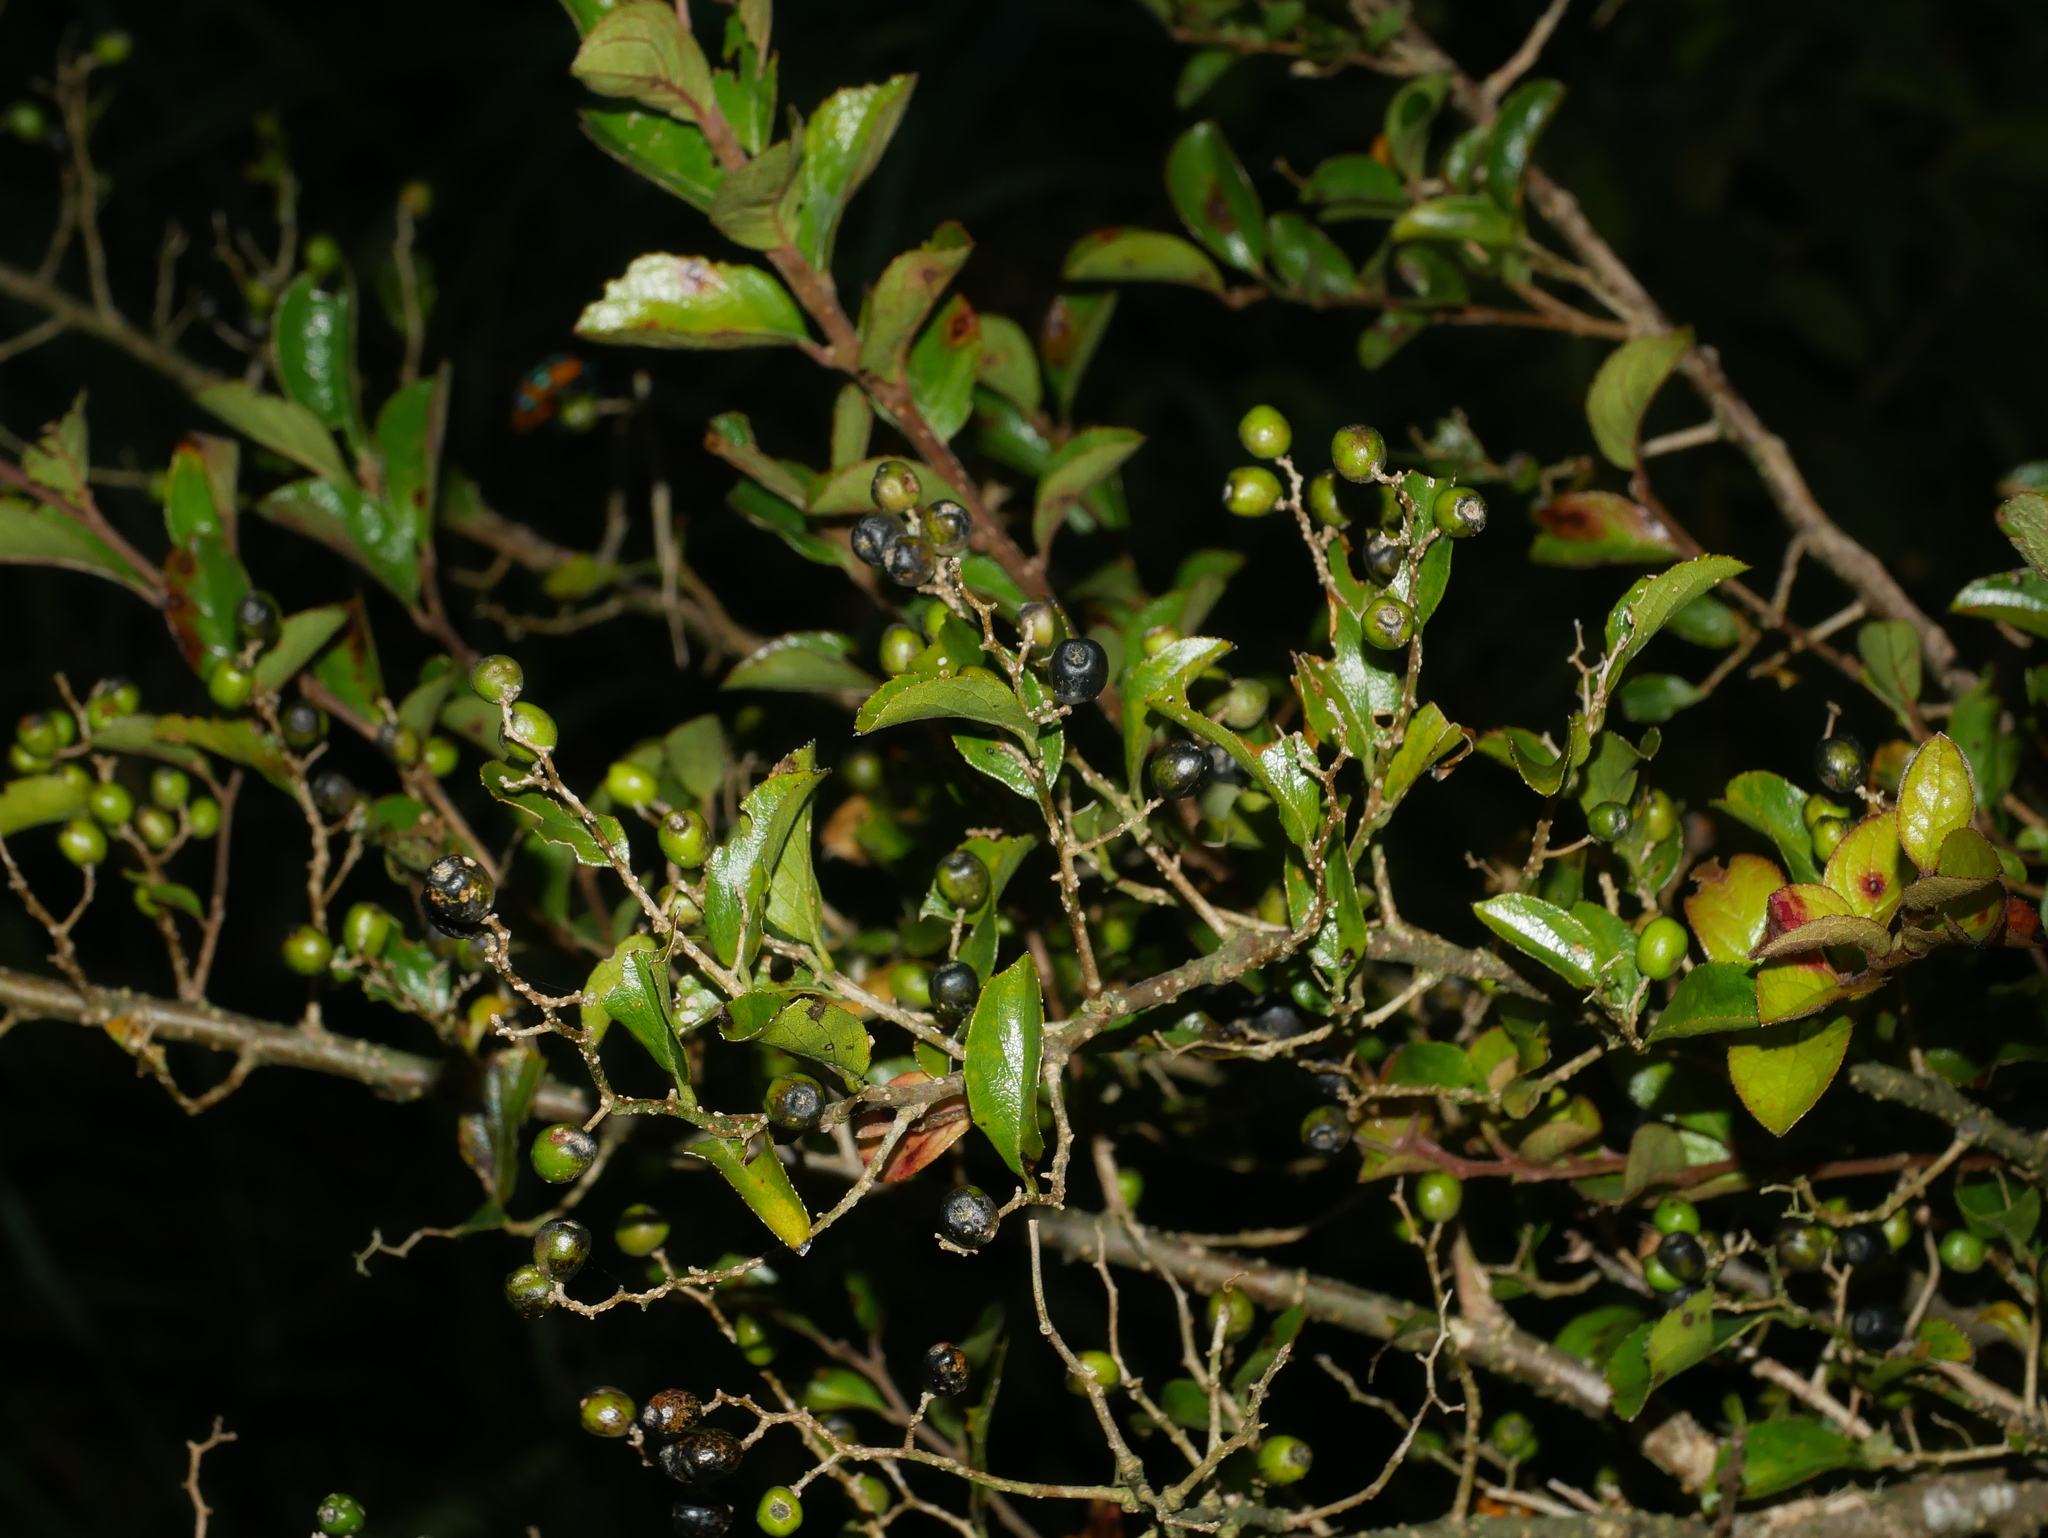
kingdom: Plantae
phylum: Tracheophyta
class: Magnoliopsida
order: Ericales
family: Symplocaceae
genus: Symplocos
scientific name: Symplocos paniculata
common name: Sapphire-berry
